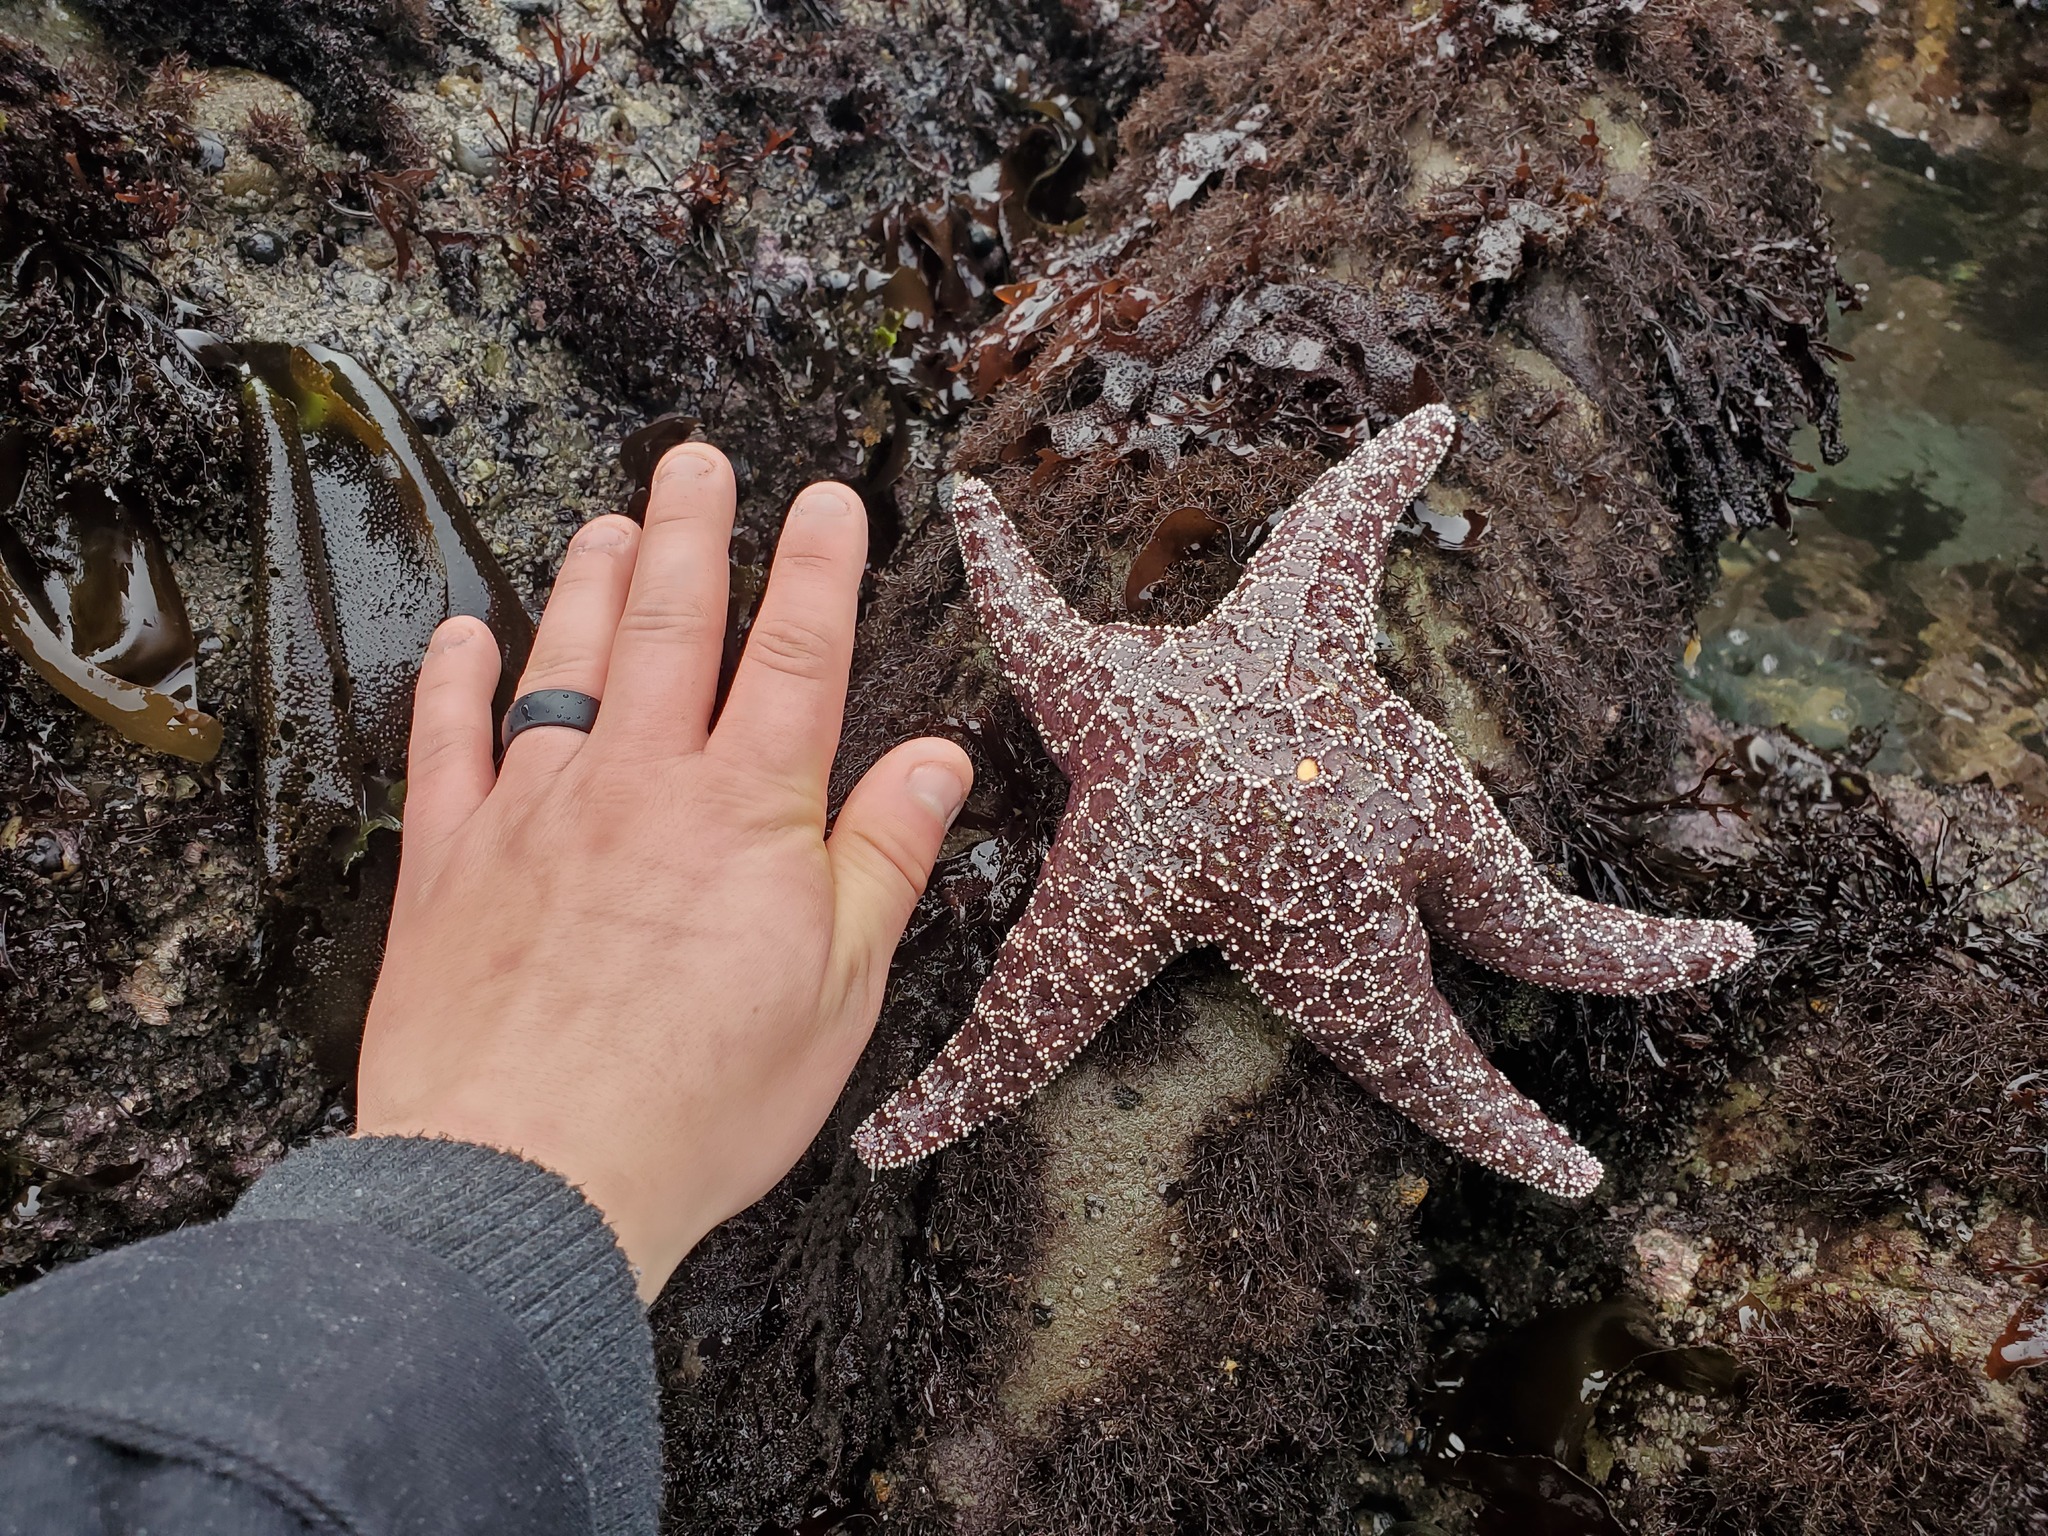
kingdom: Animalia
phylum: Echinodermata
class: Asteroidea
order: Forcipulatida
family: Asteriidae
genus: Pisaster
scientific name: Pisaster ochraceus
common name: Ochre stars
